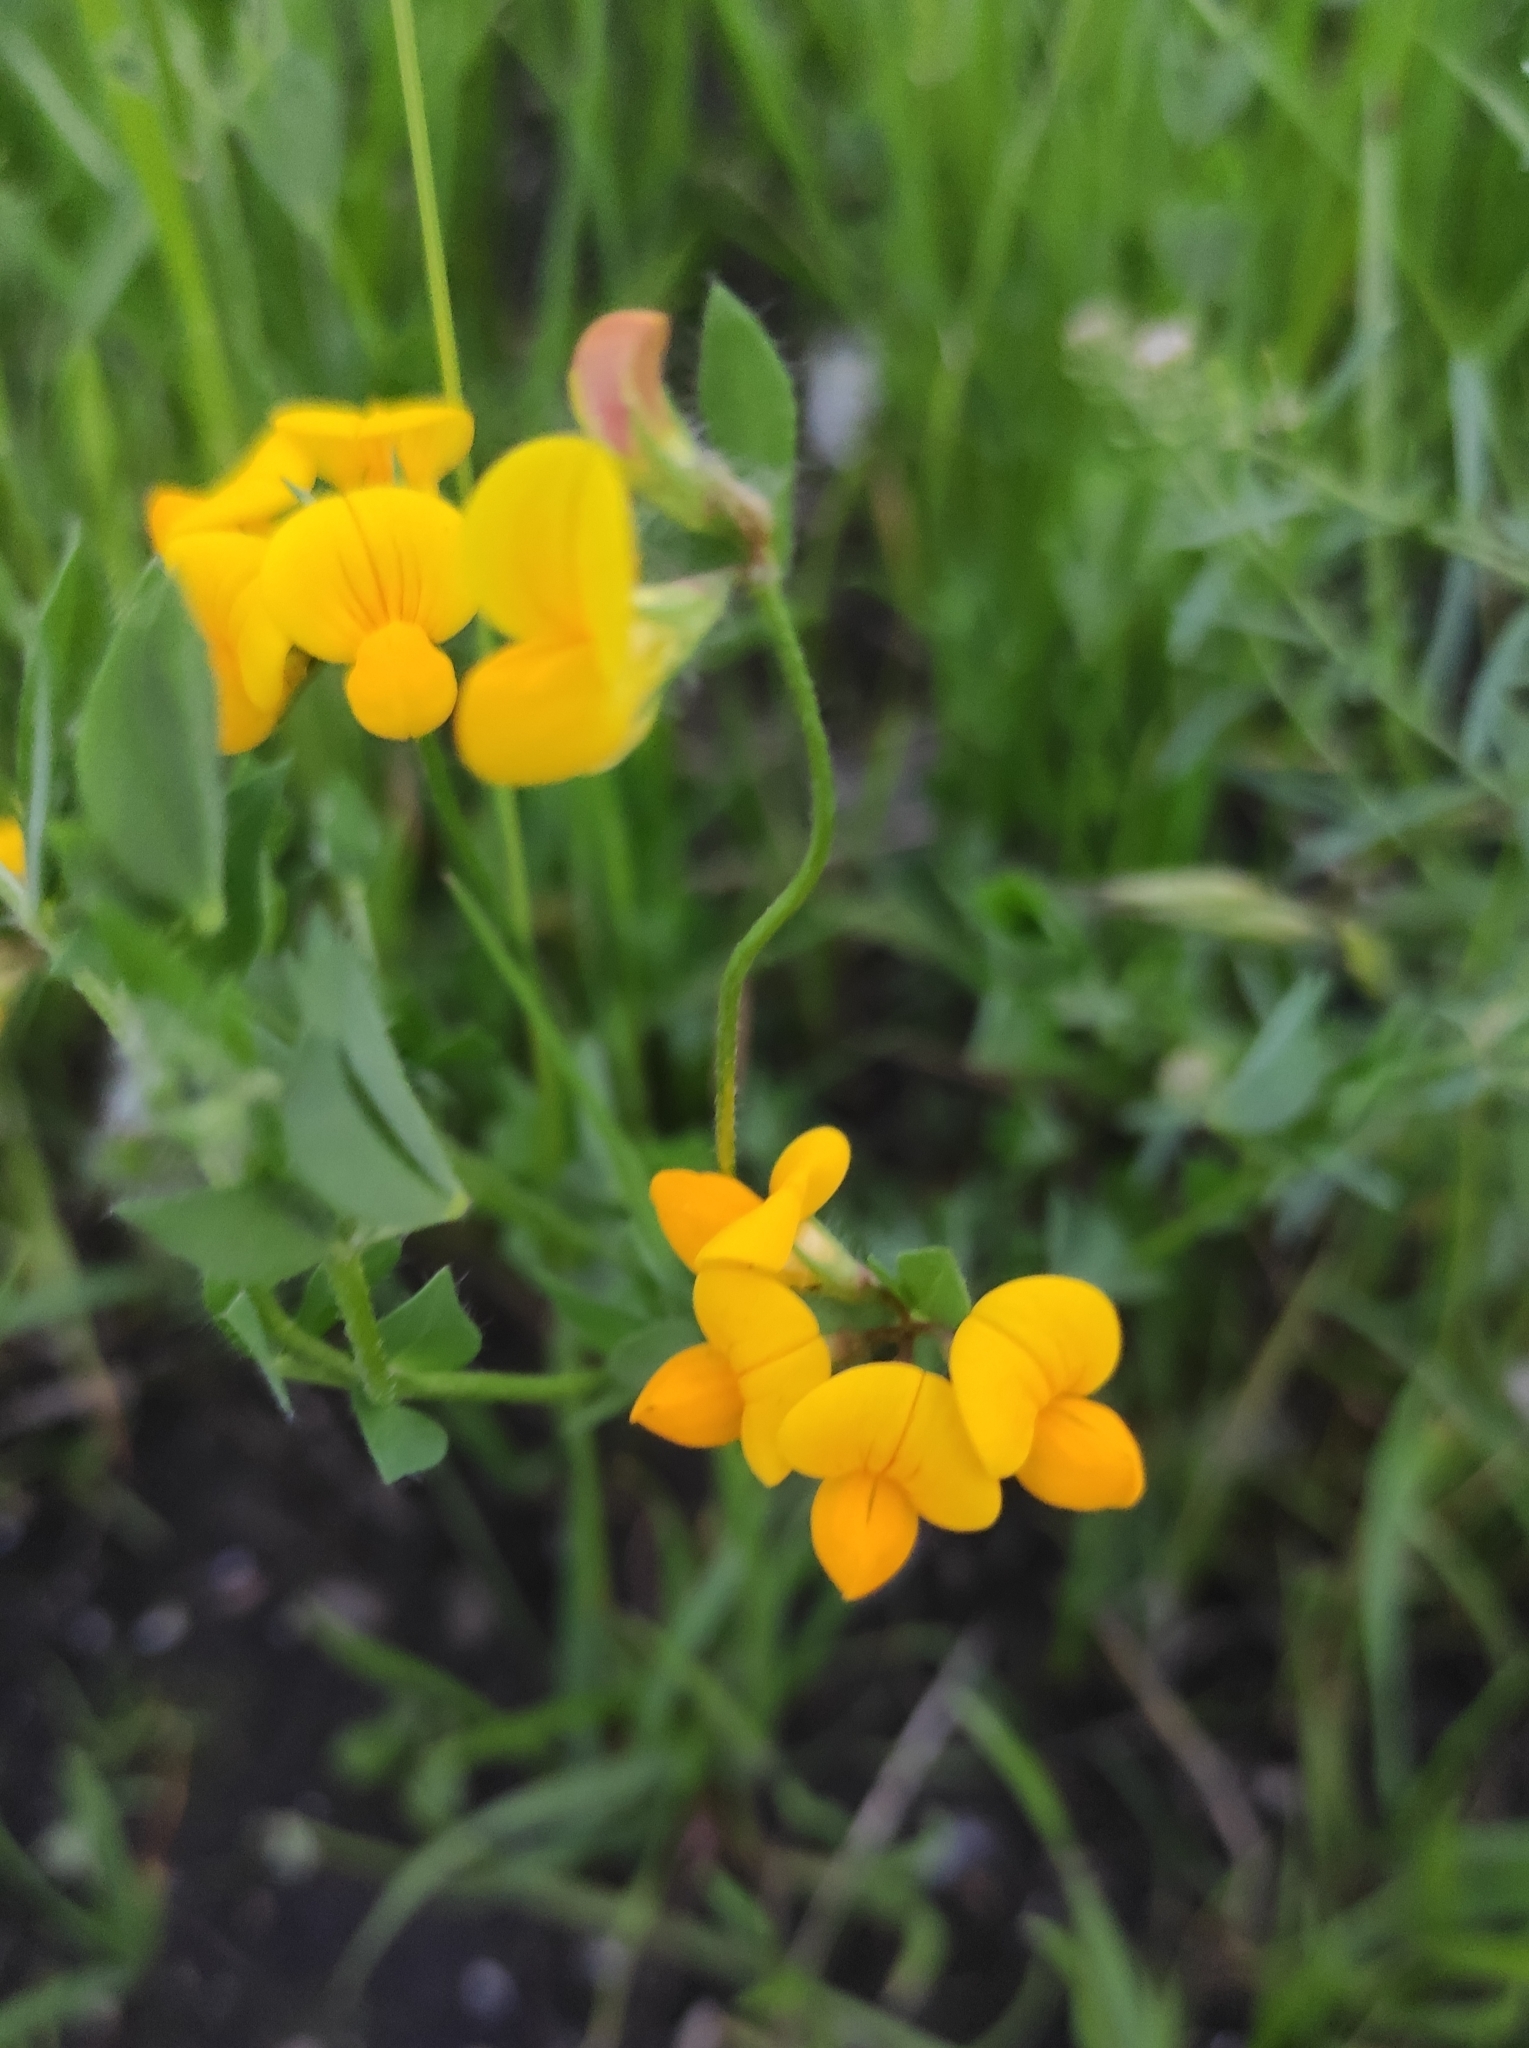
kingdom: Plantae
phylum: Tracheophyta
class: Magnoliopsida
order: Fabales
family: Fabaceae
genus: Lotus
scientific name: Lotus corniculatus
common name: Common bird's-foot-trefoil
